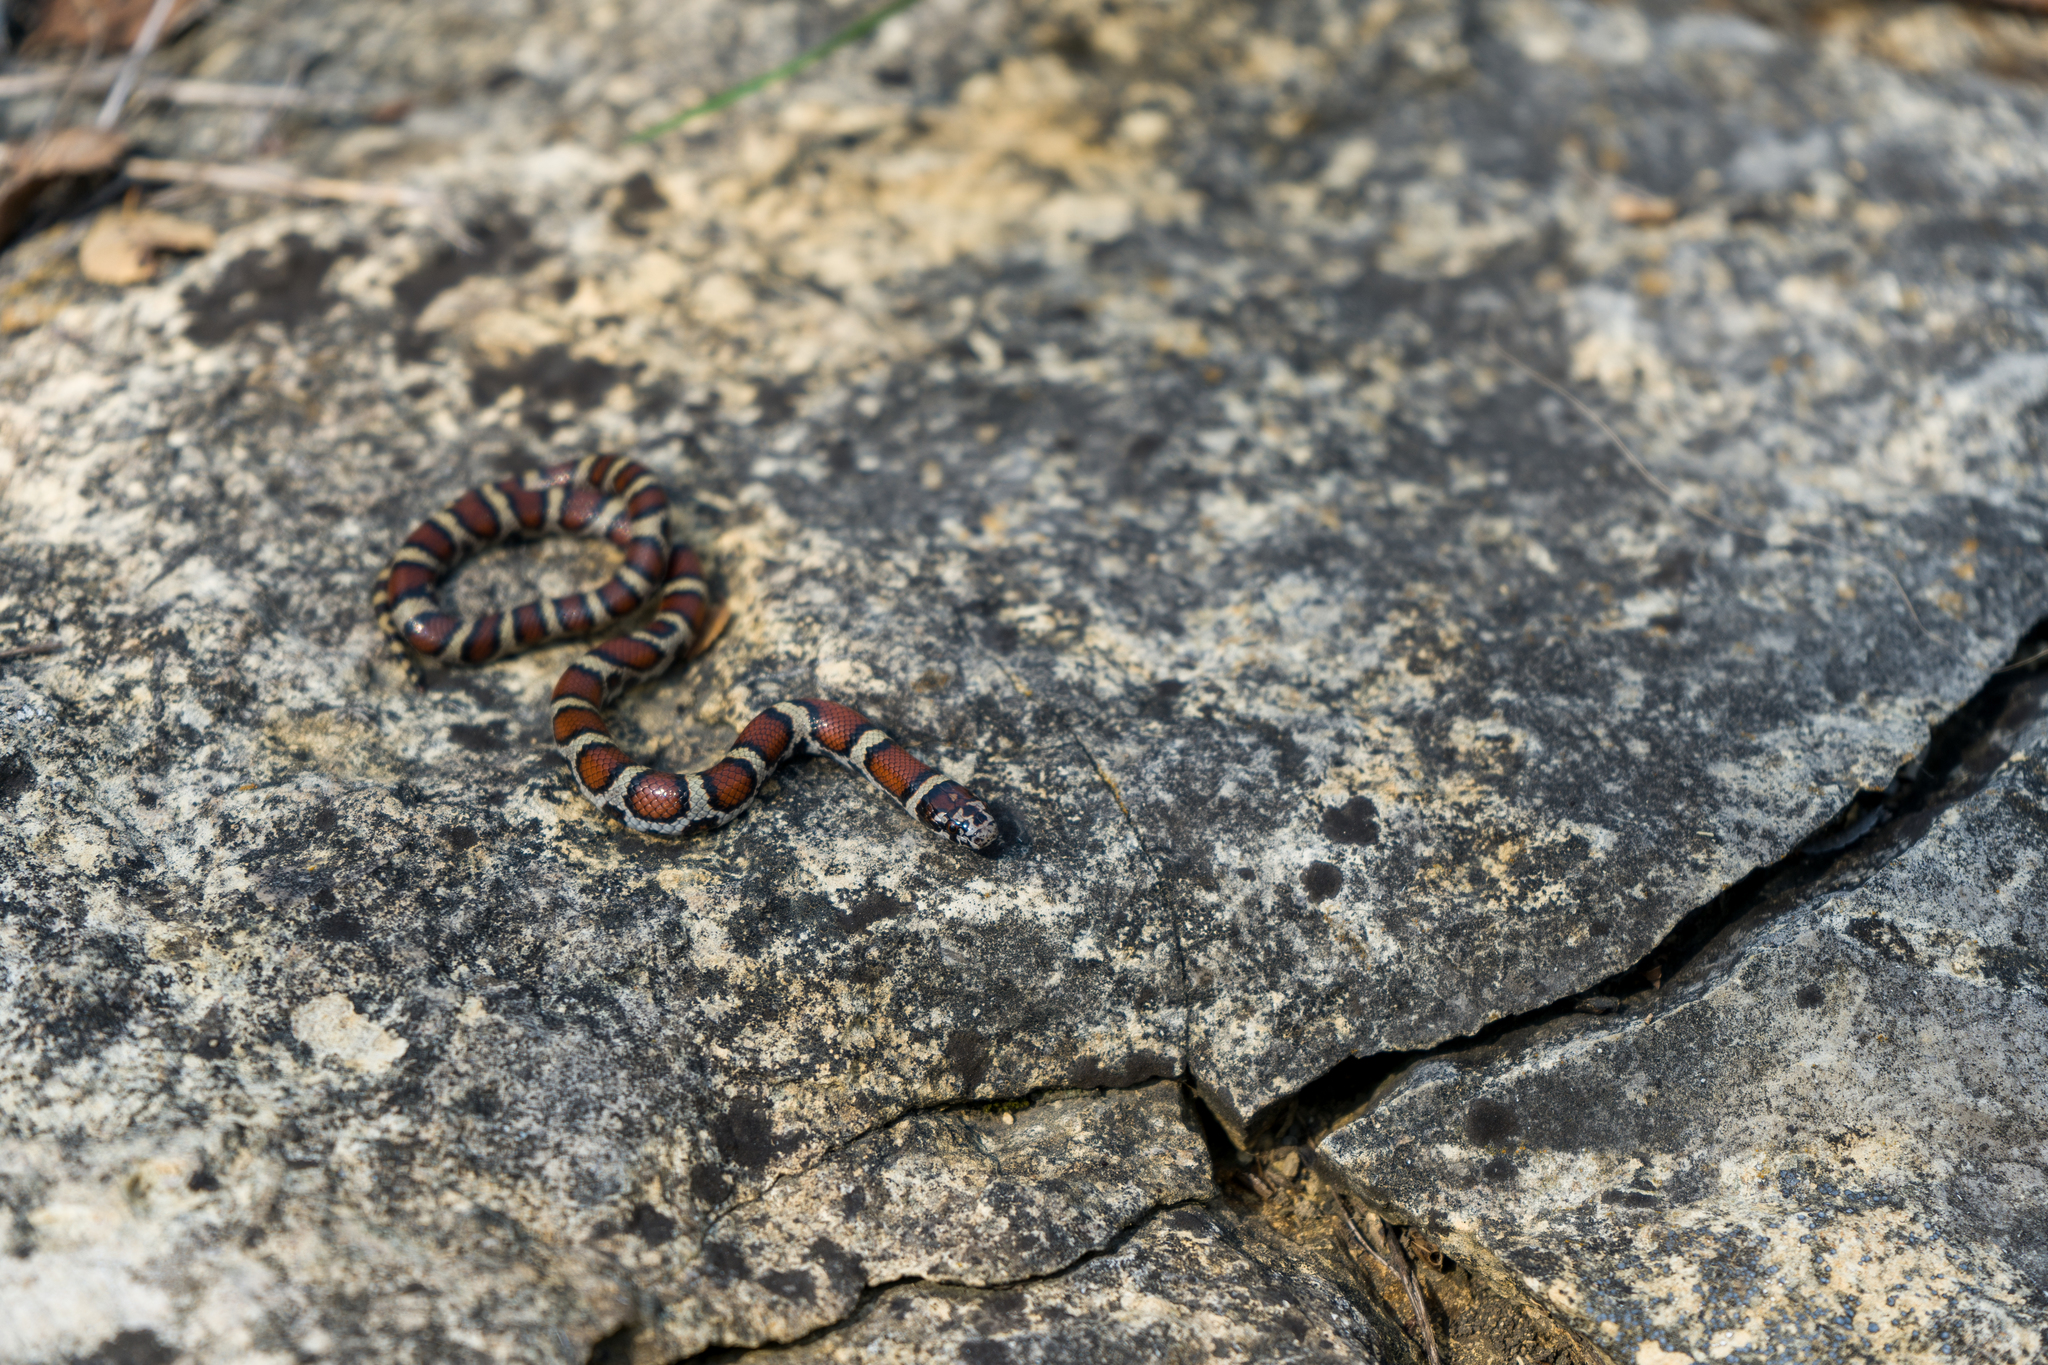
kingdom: Animalia
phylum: Chordata
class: Squamata
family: Colubridae
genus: Lampropeltis
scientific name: Lampropeltis triangulum
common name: Eastern milksnake
